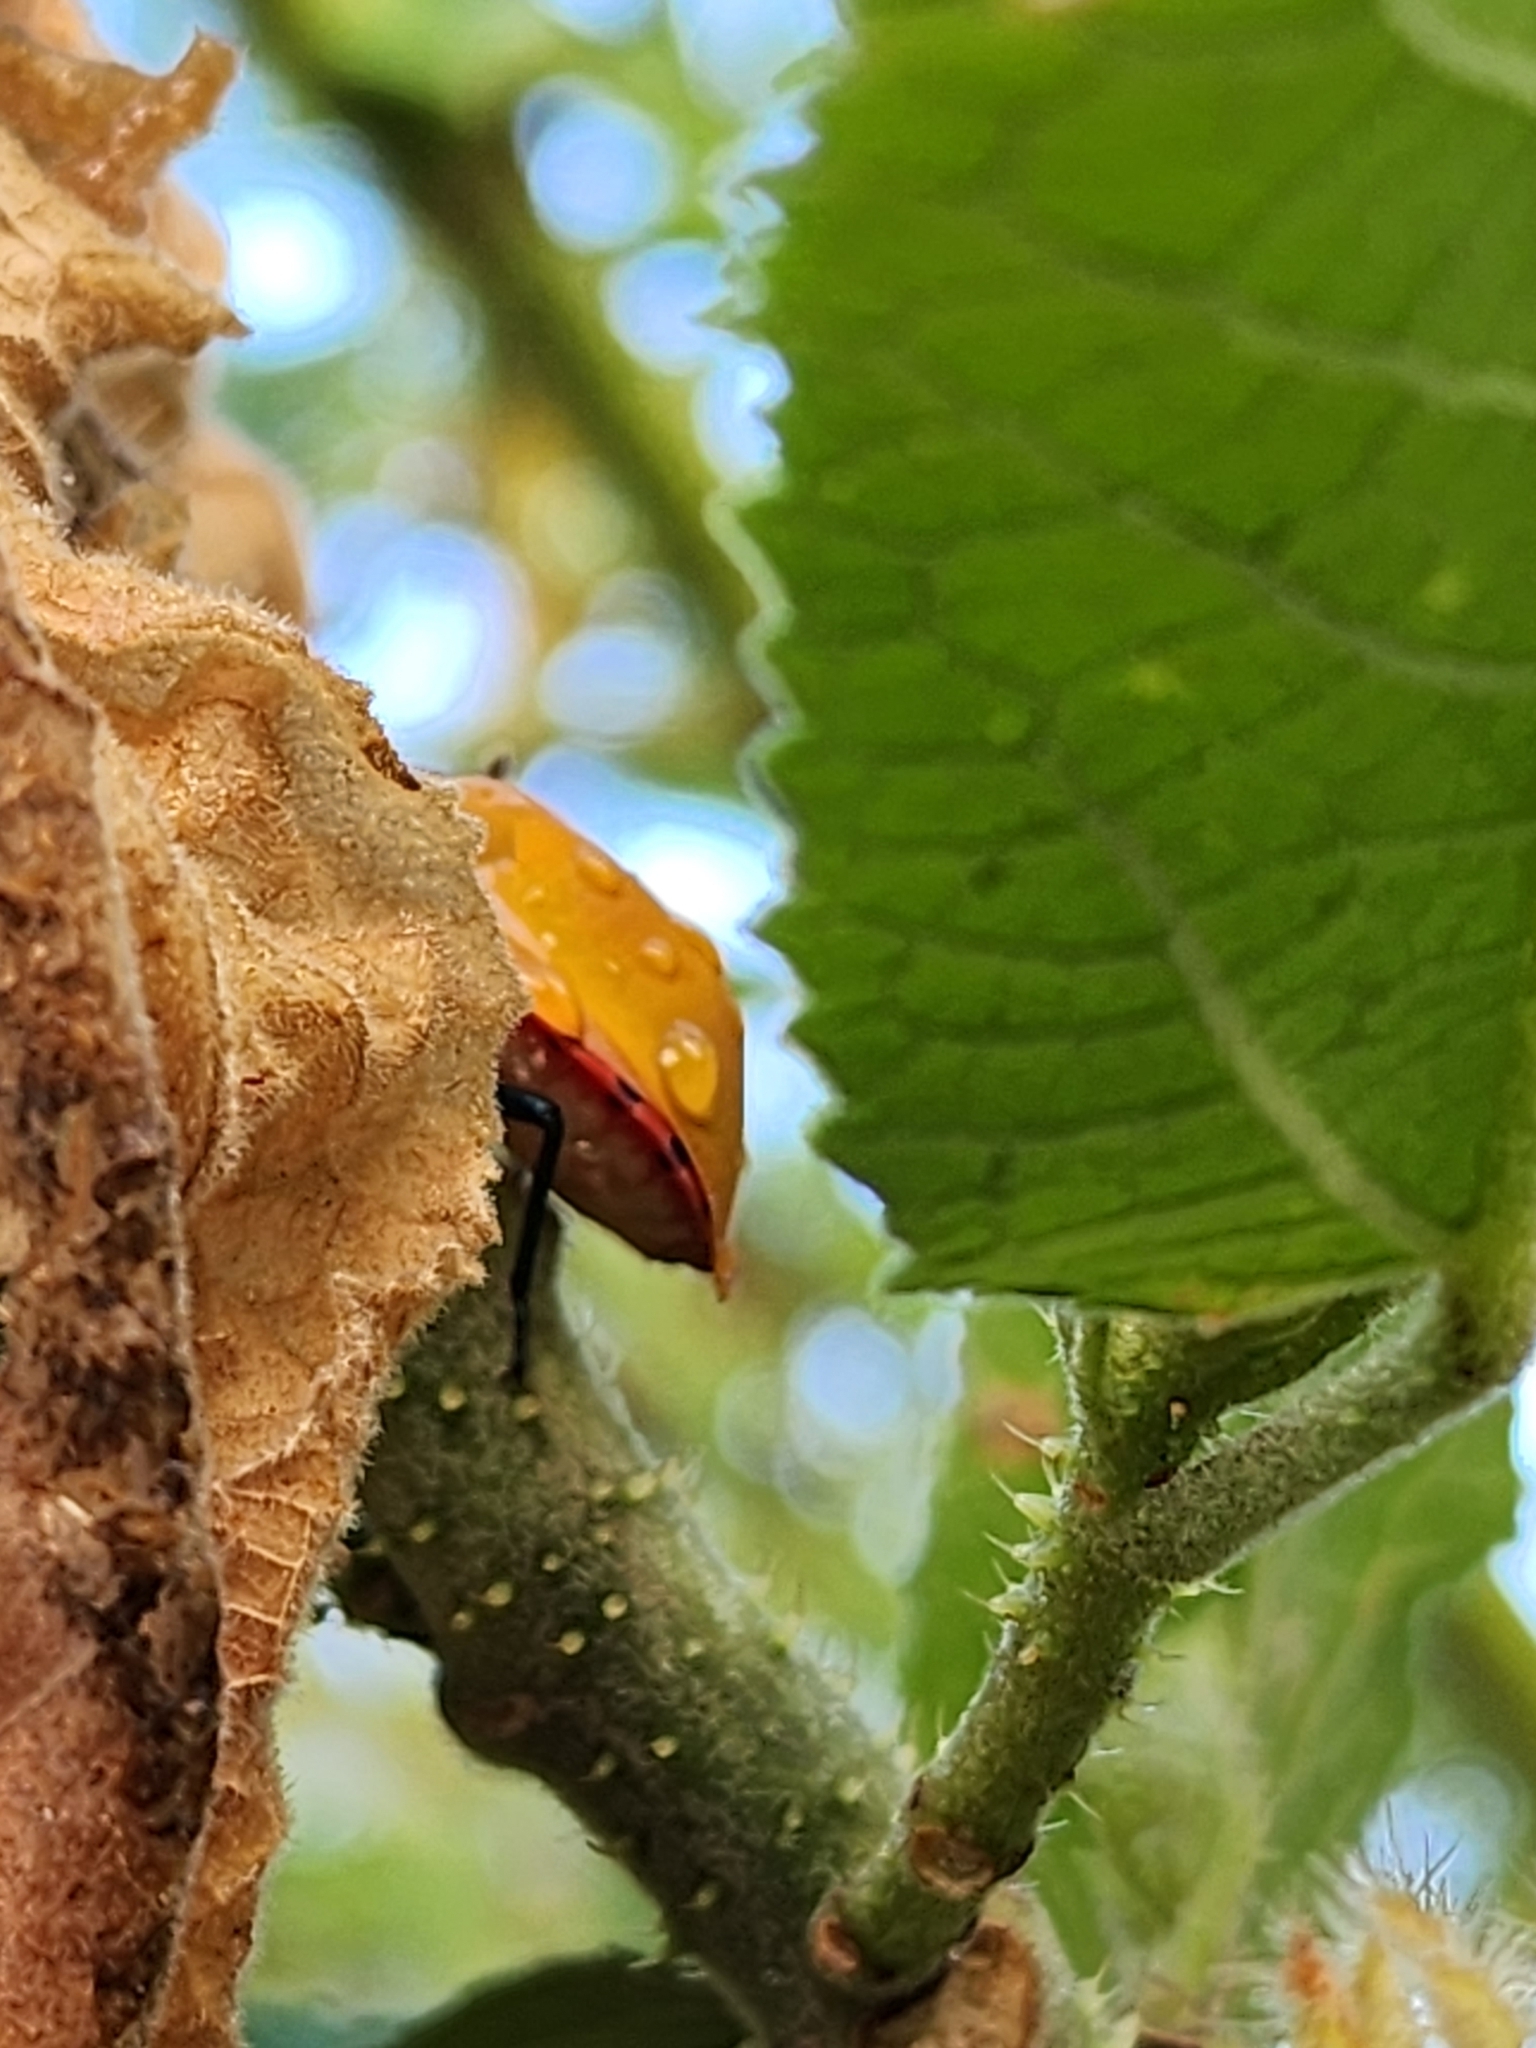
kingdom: Animalia
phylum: Arthropoda
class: Insecta
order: Hemiptera
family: Scutelleridae
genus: Tectocoris
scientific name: Tectocoris diophthalmus
